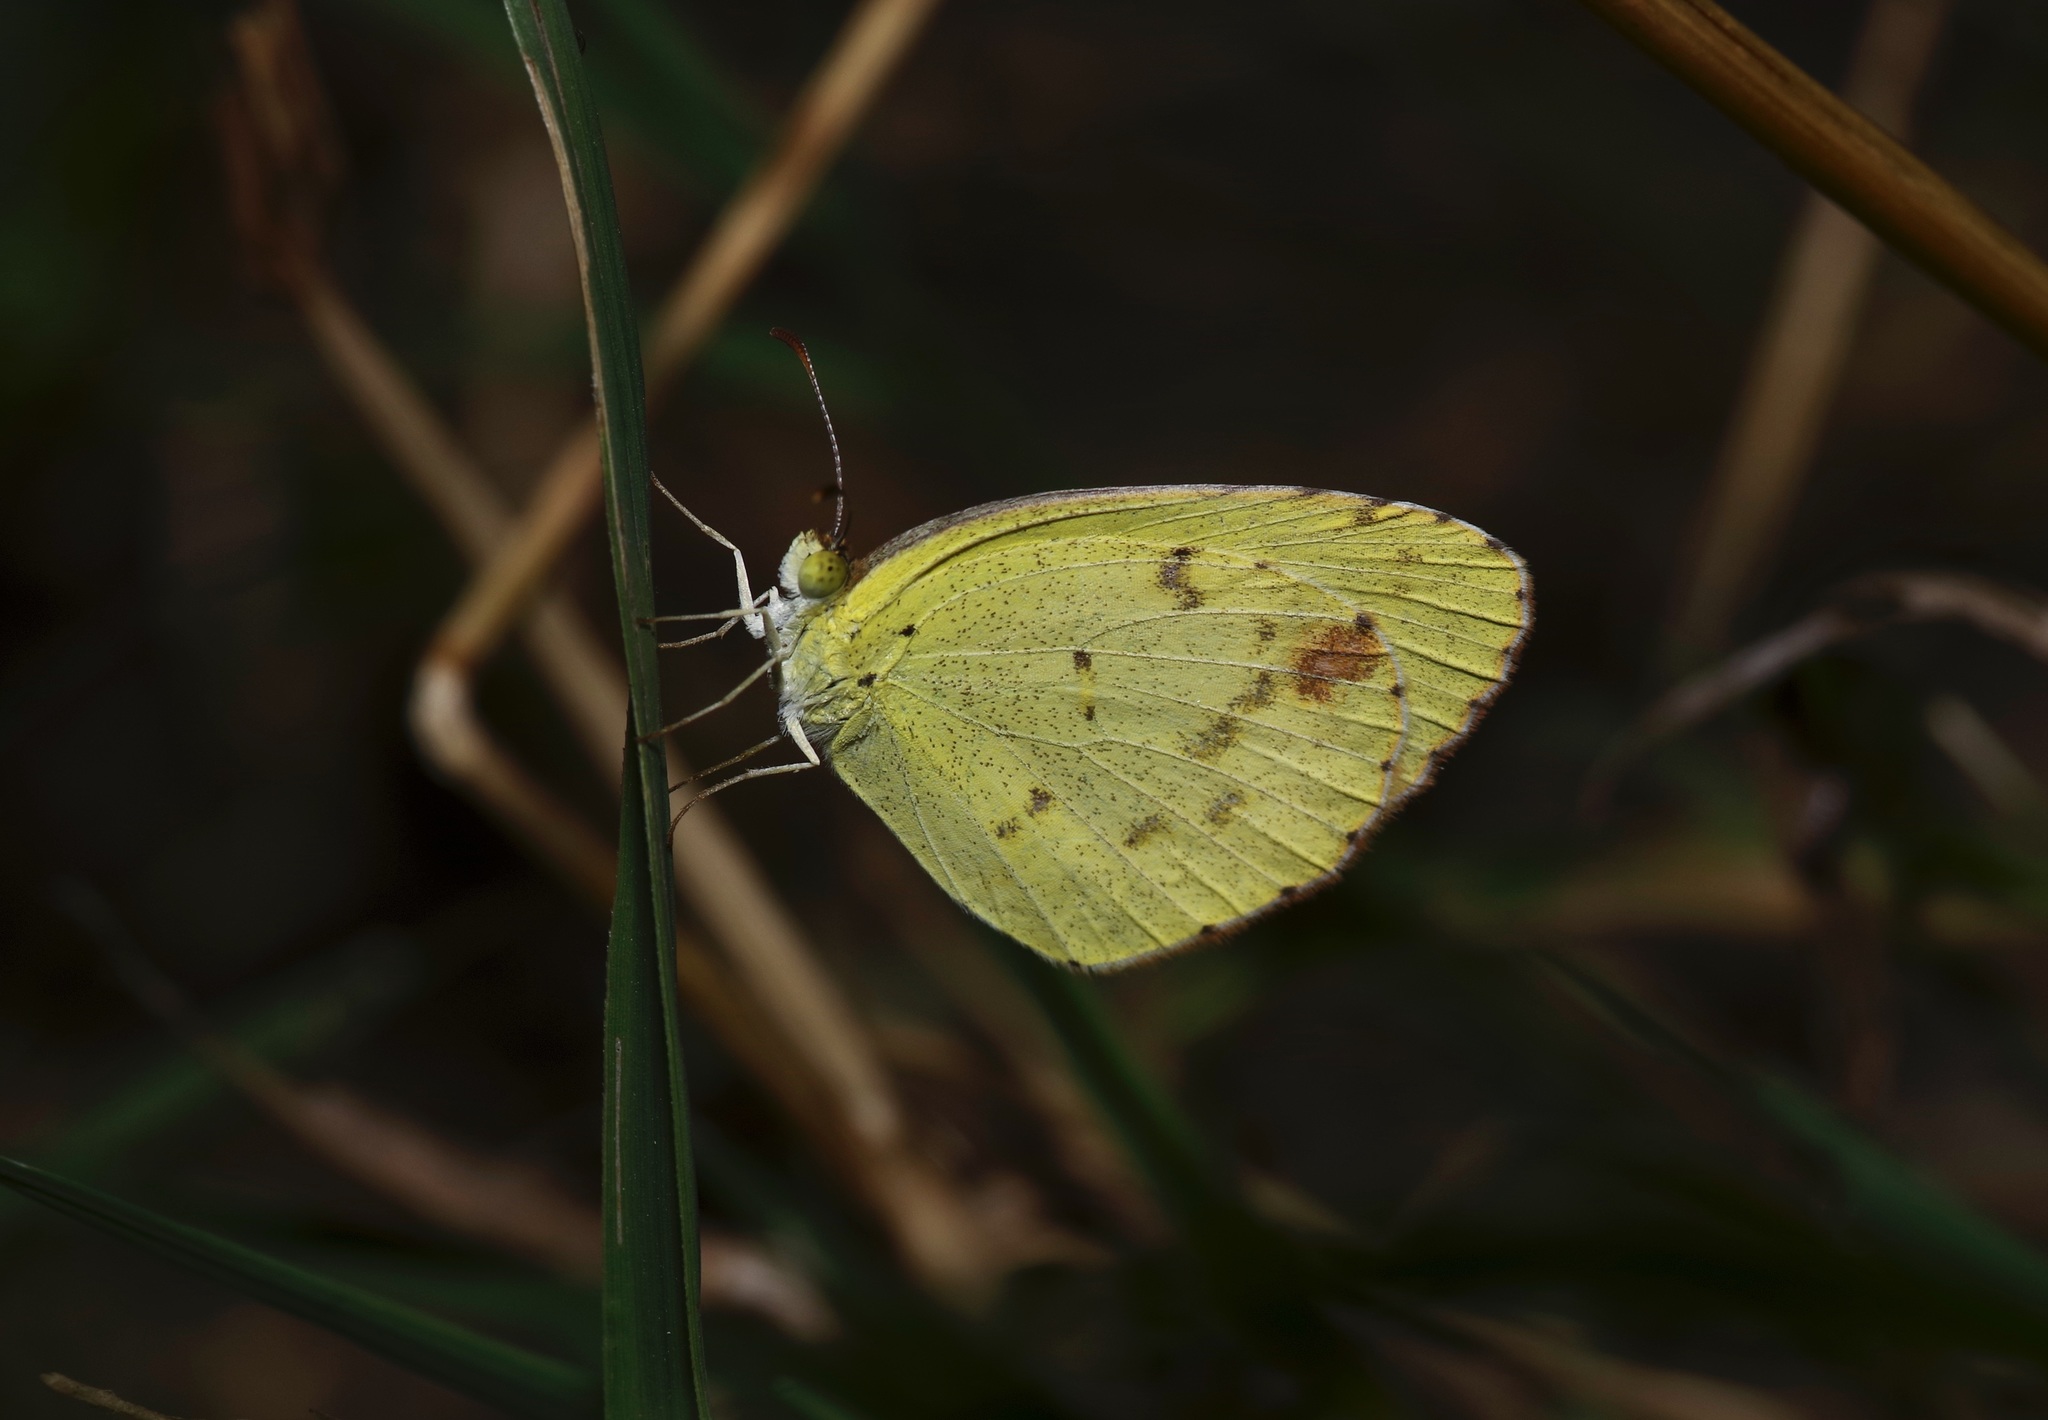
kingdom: Animalia
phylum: Arthropoda
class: Insecta
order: Lepidoptera
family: Pieridae
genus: Pyrisitia
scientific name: Pyrisitia lisa
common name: Little yellow
